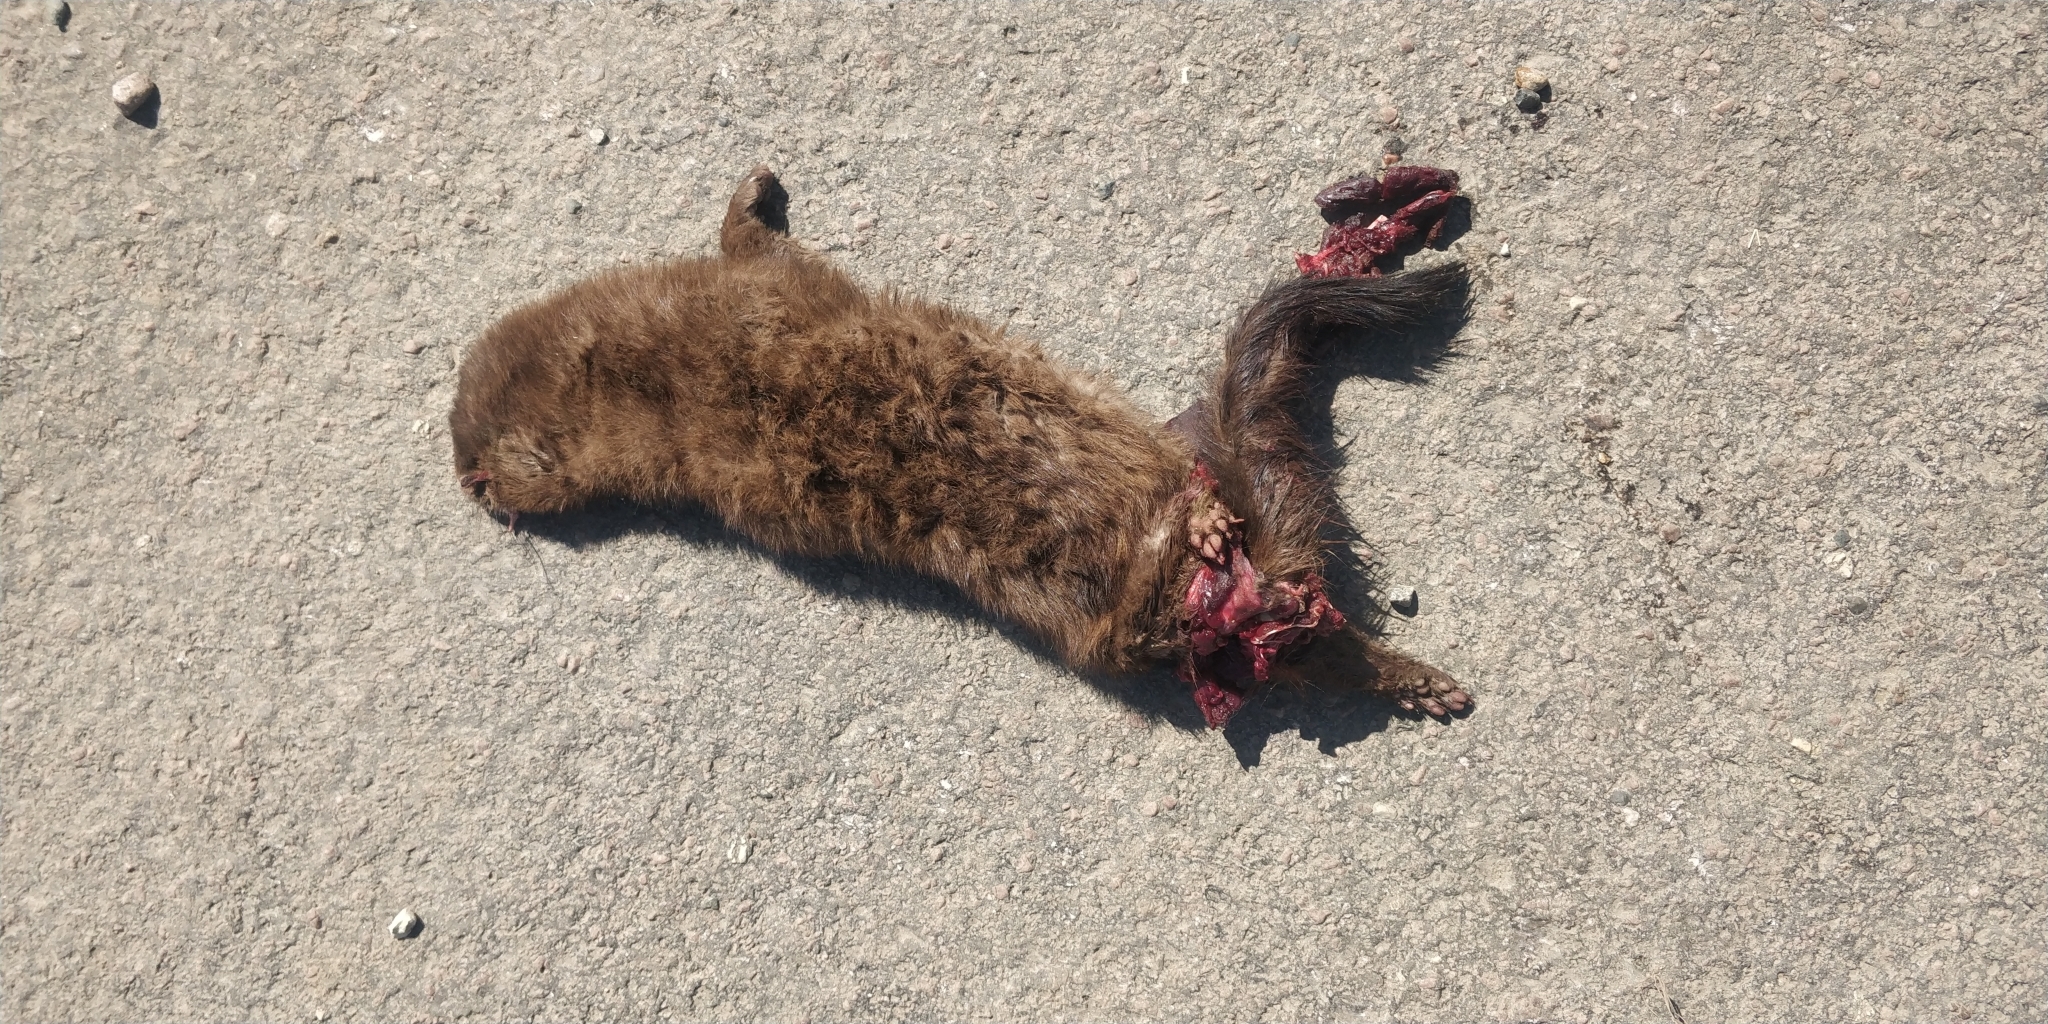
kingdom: Animalia
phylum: Chordata
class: Mammalia
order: Carnivora
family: Mustelidae
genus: Mustela
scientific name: Mustela
